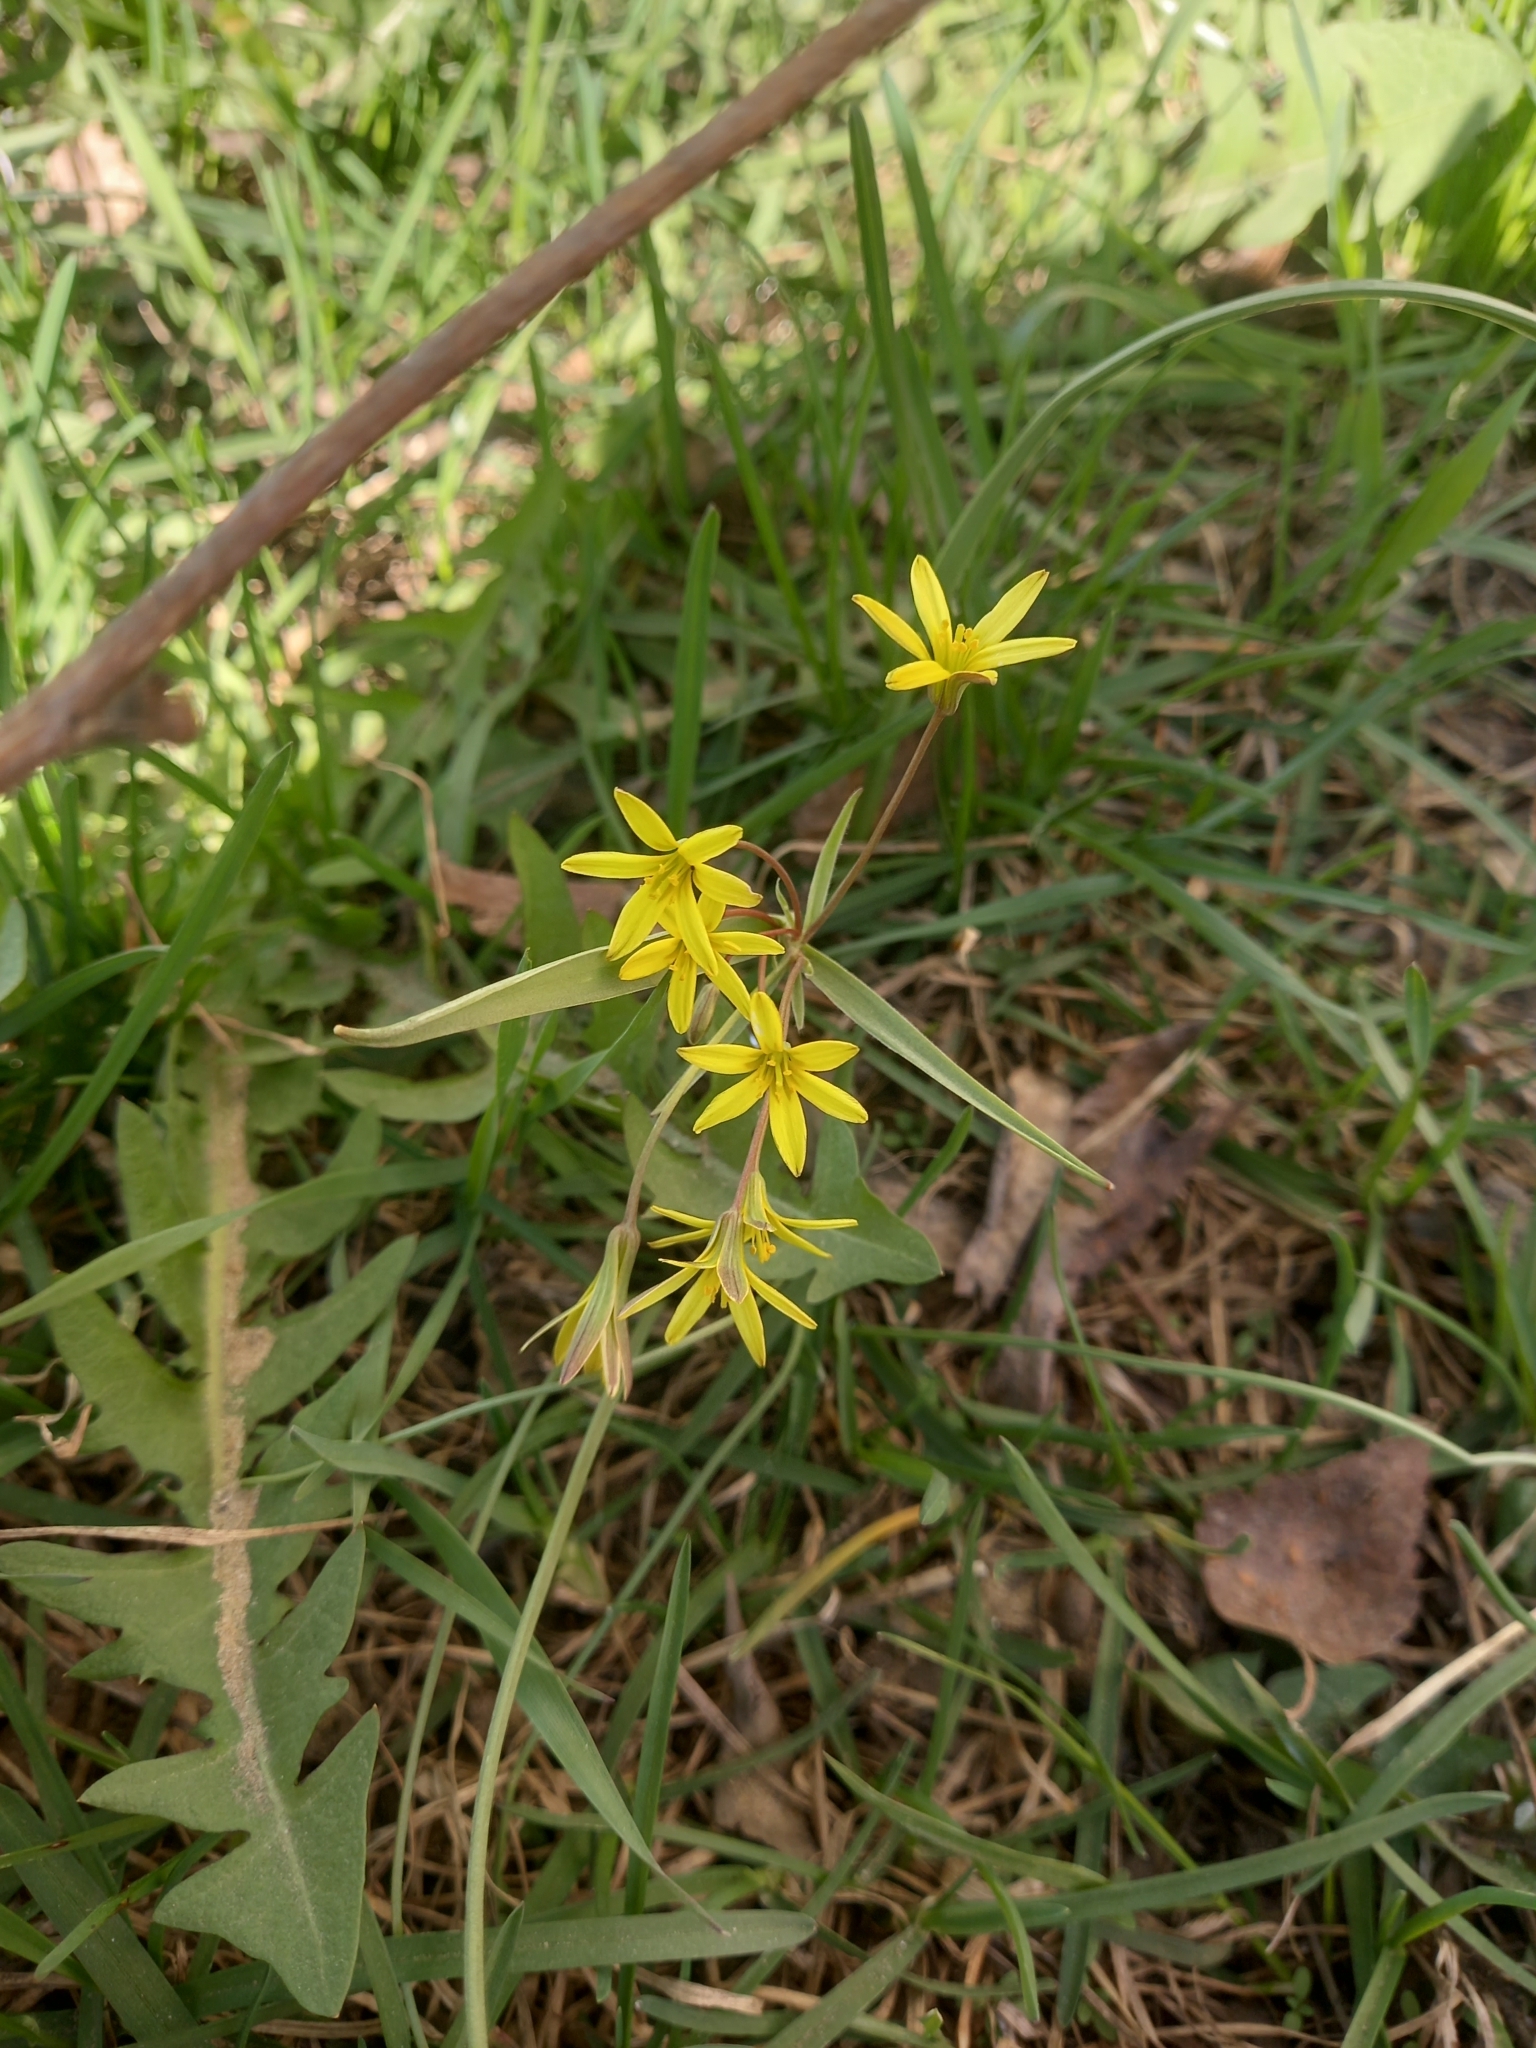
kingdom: Plantae
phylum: Tracheophyta
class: Liliopsida
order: Liliales
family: Liliaceae
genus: Gagea
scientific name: Gagea fragifera
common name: Lily
